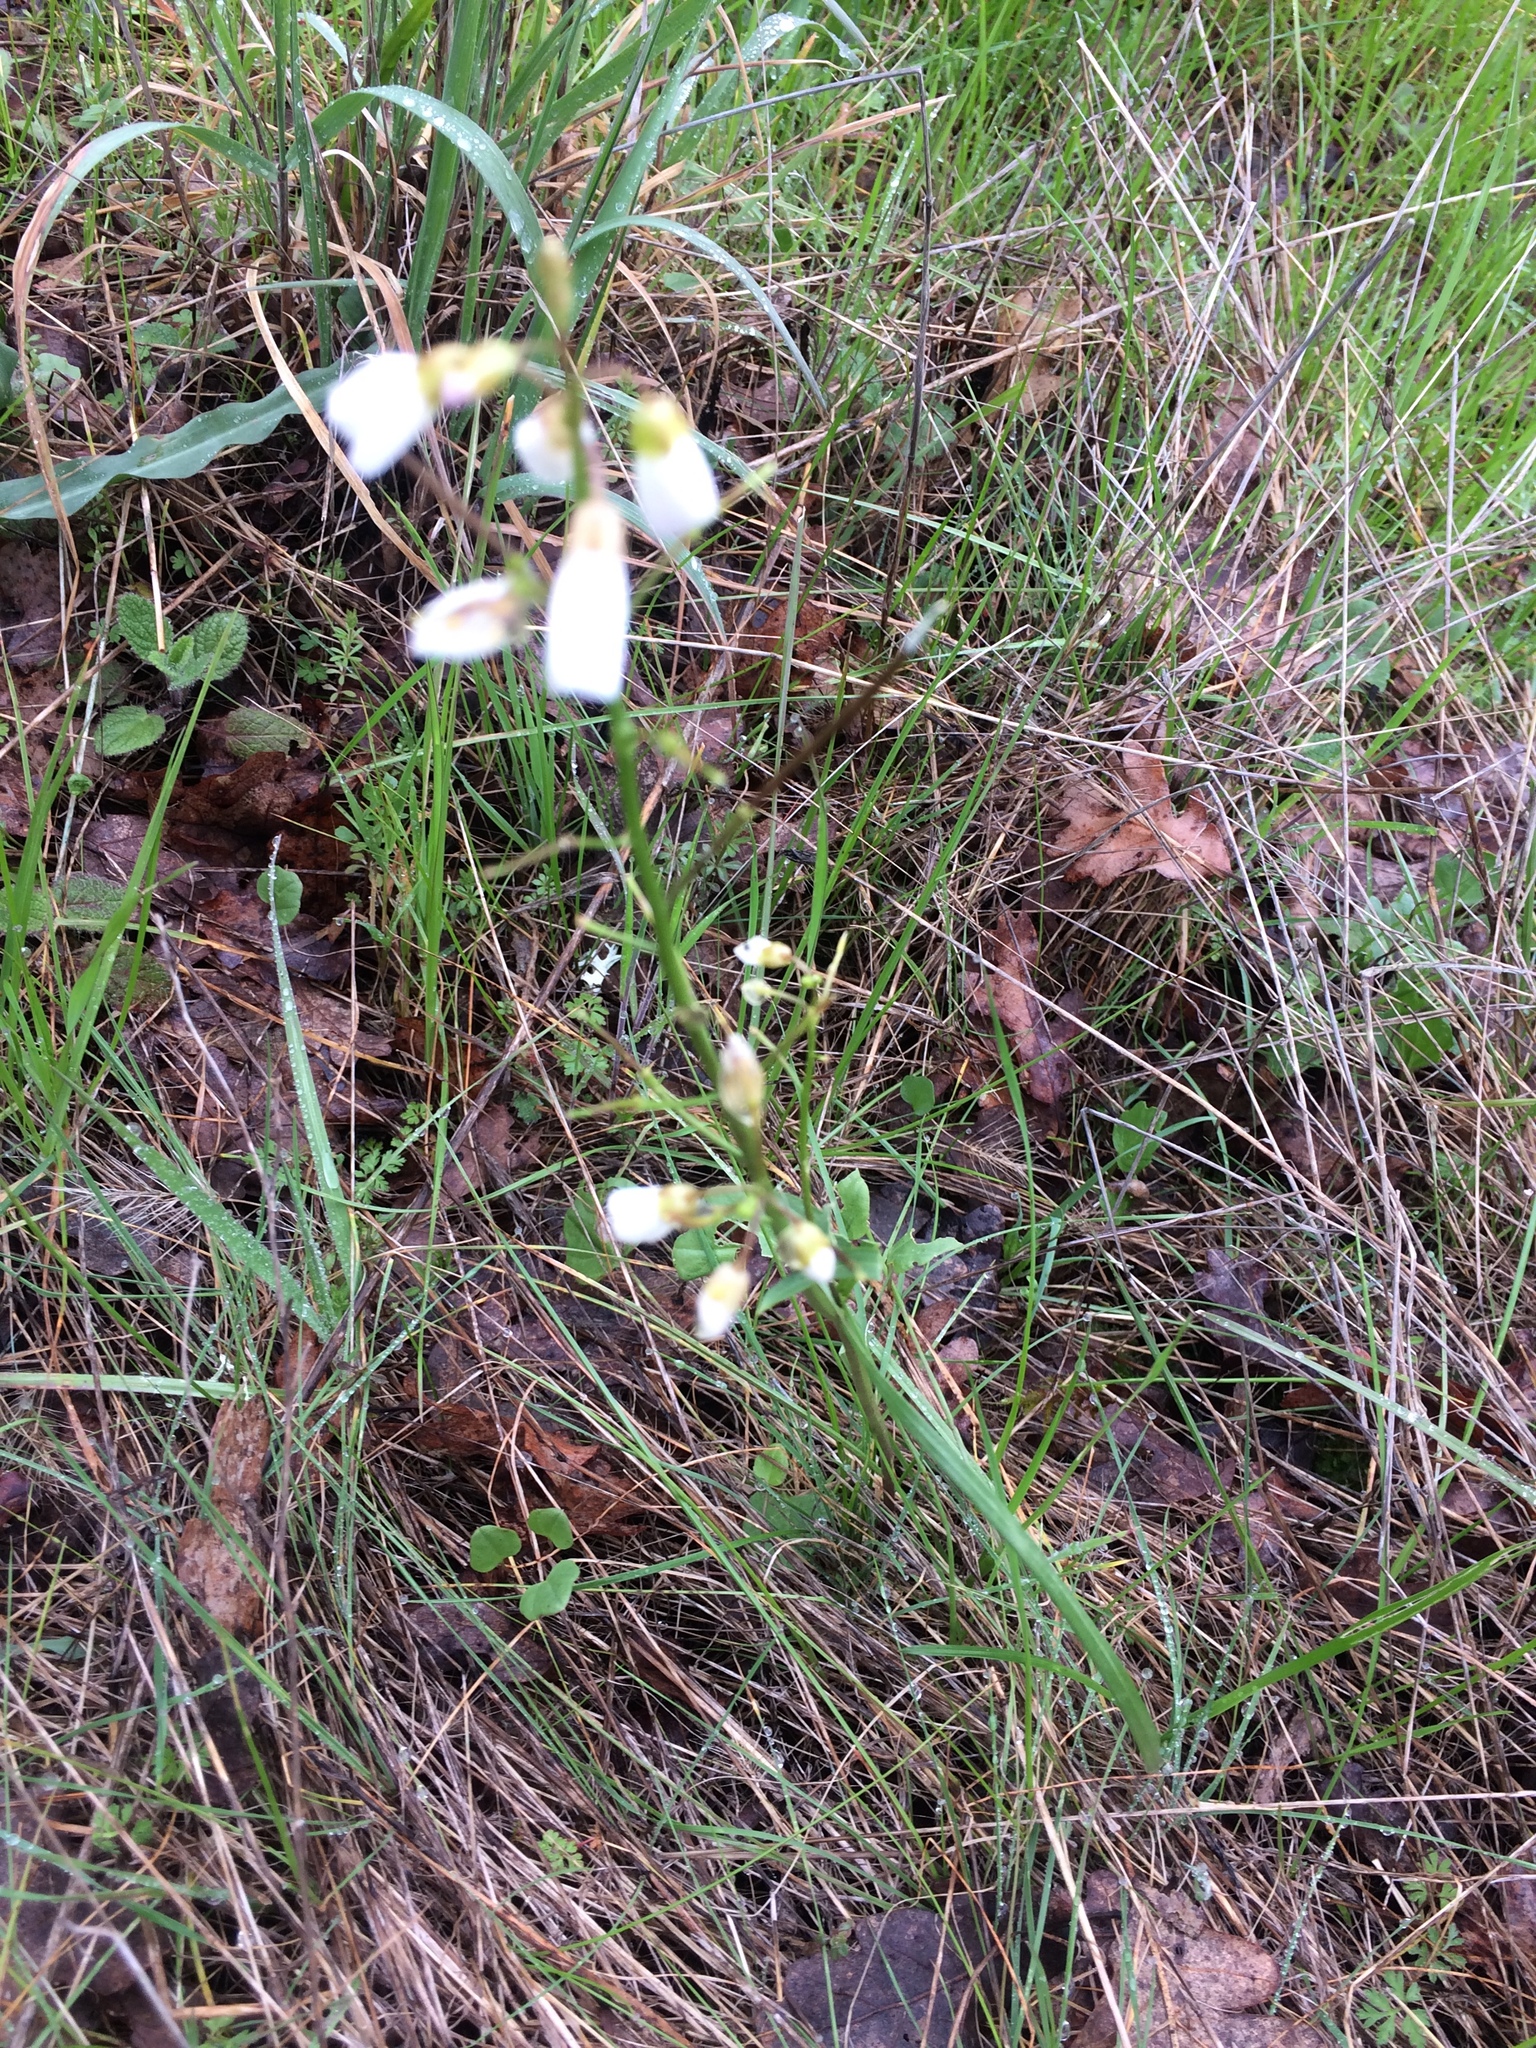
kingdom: Plantae
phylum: Tracheophyta
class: Magnoliopsida
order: Brassicales
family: Brassicaceae
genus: Cardamine
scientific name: Cardamine californica
